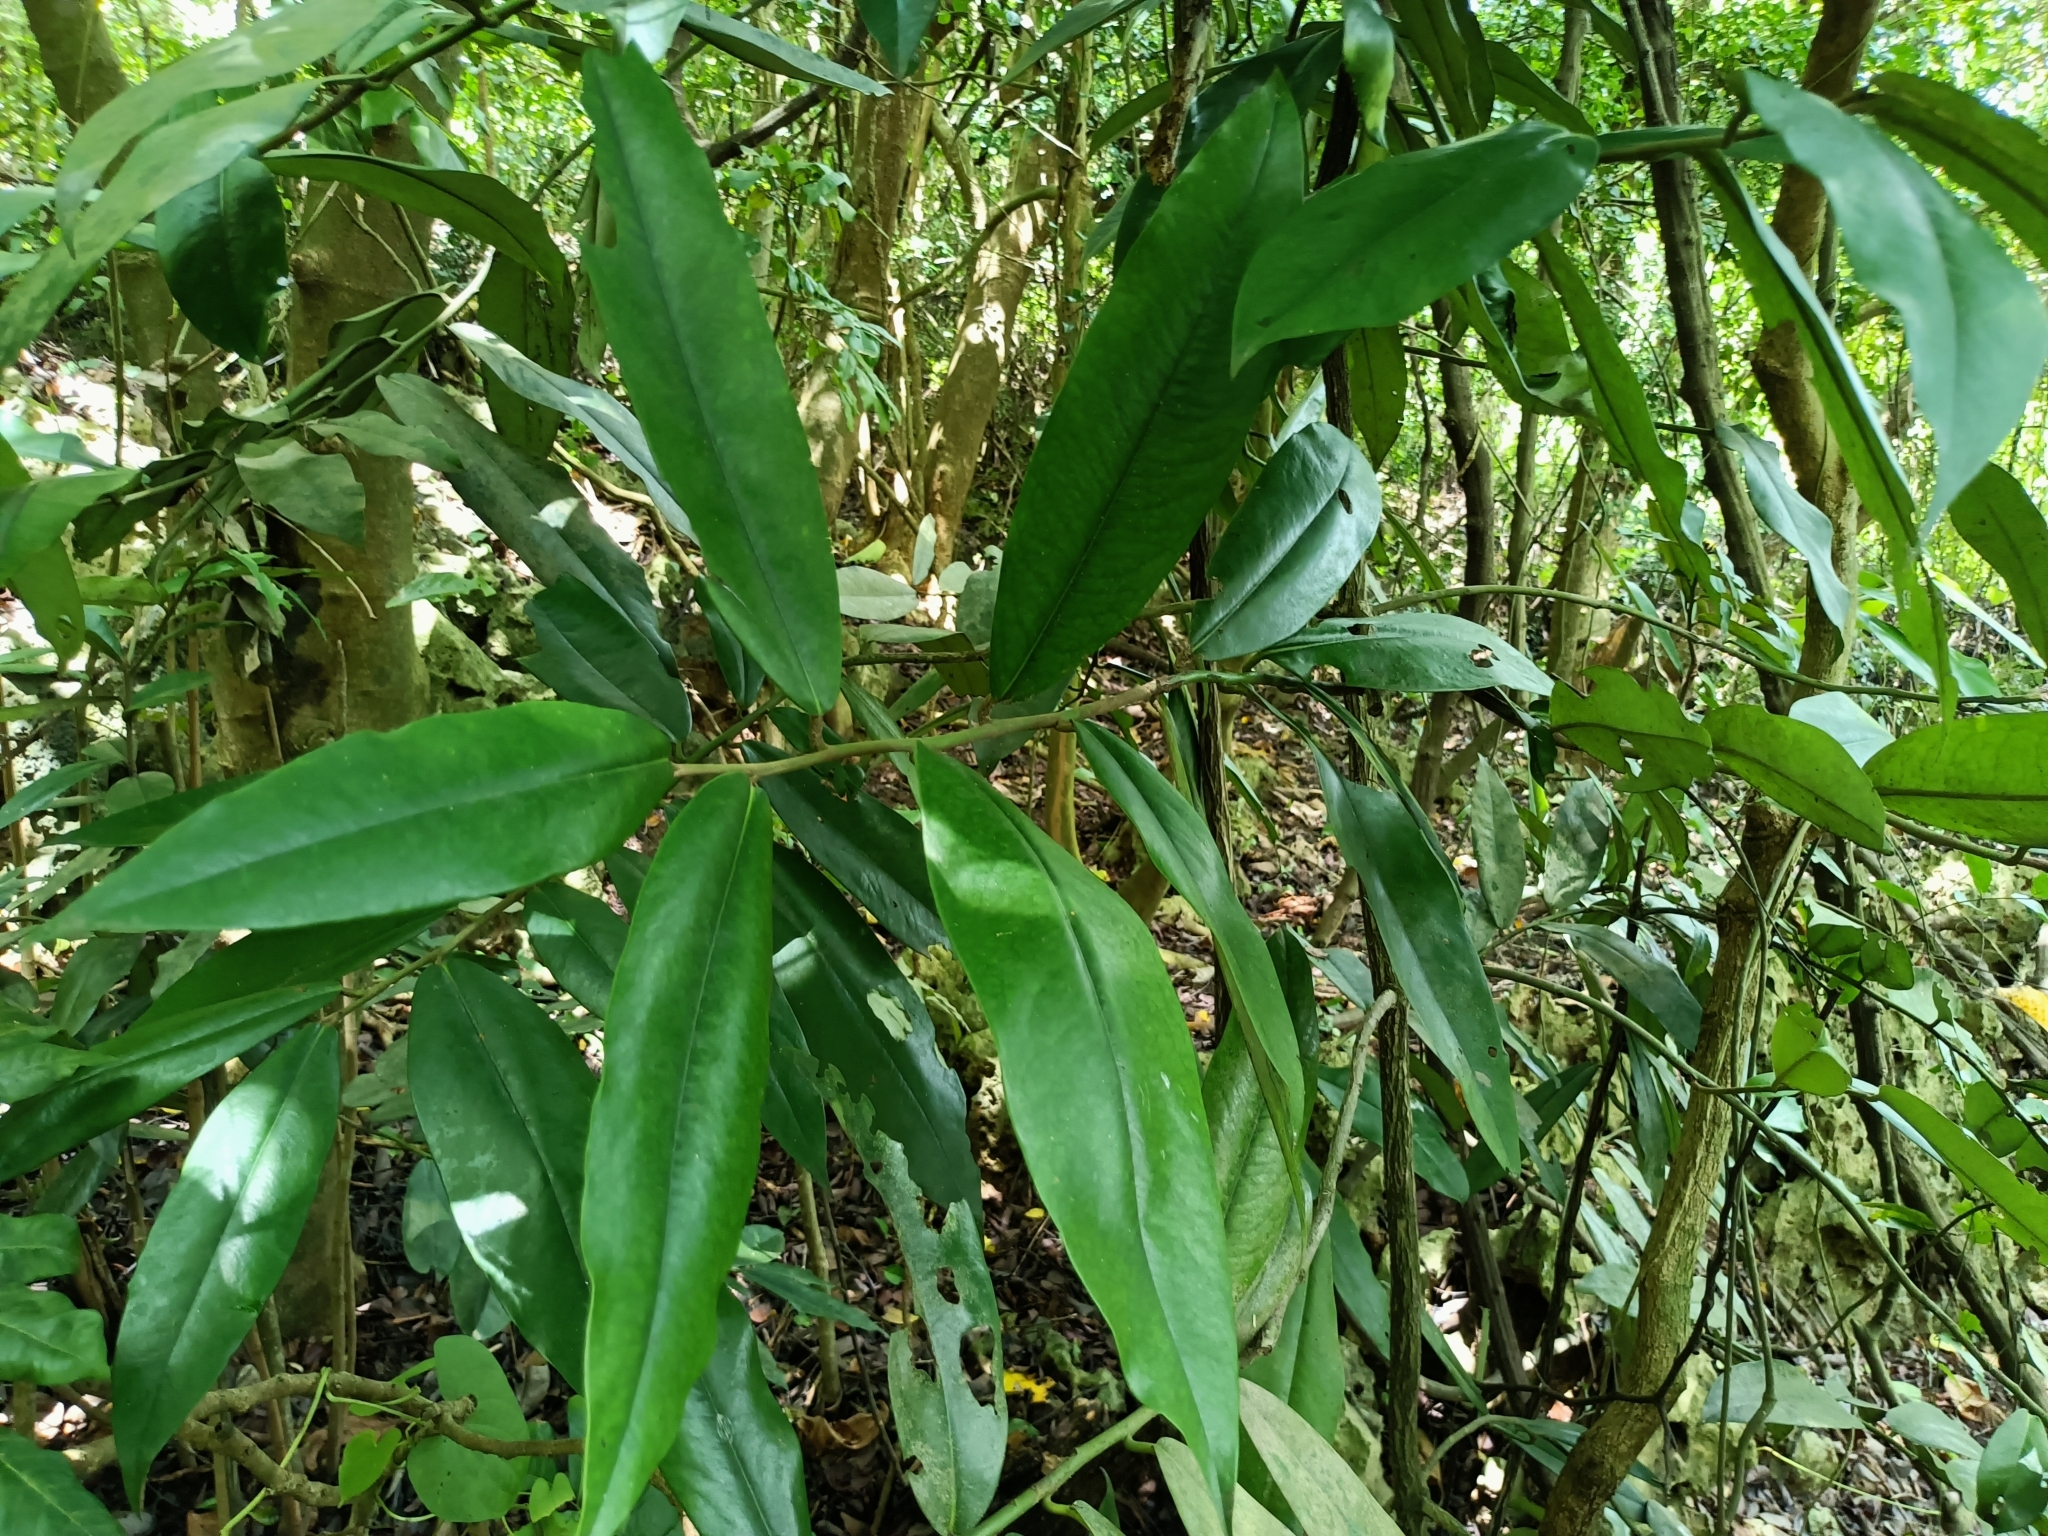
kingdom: Plantae
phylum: Tracheophyta
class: Magnoliopsida
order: Ericales
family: Ebenaceae
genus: Diospyros
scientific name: Diospyros blancoi
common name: Mabola-tree
